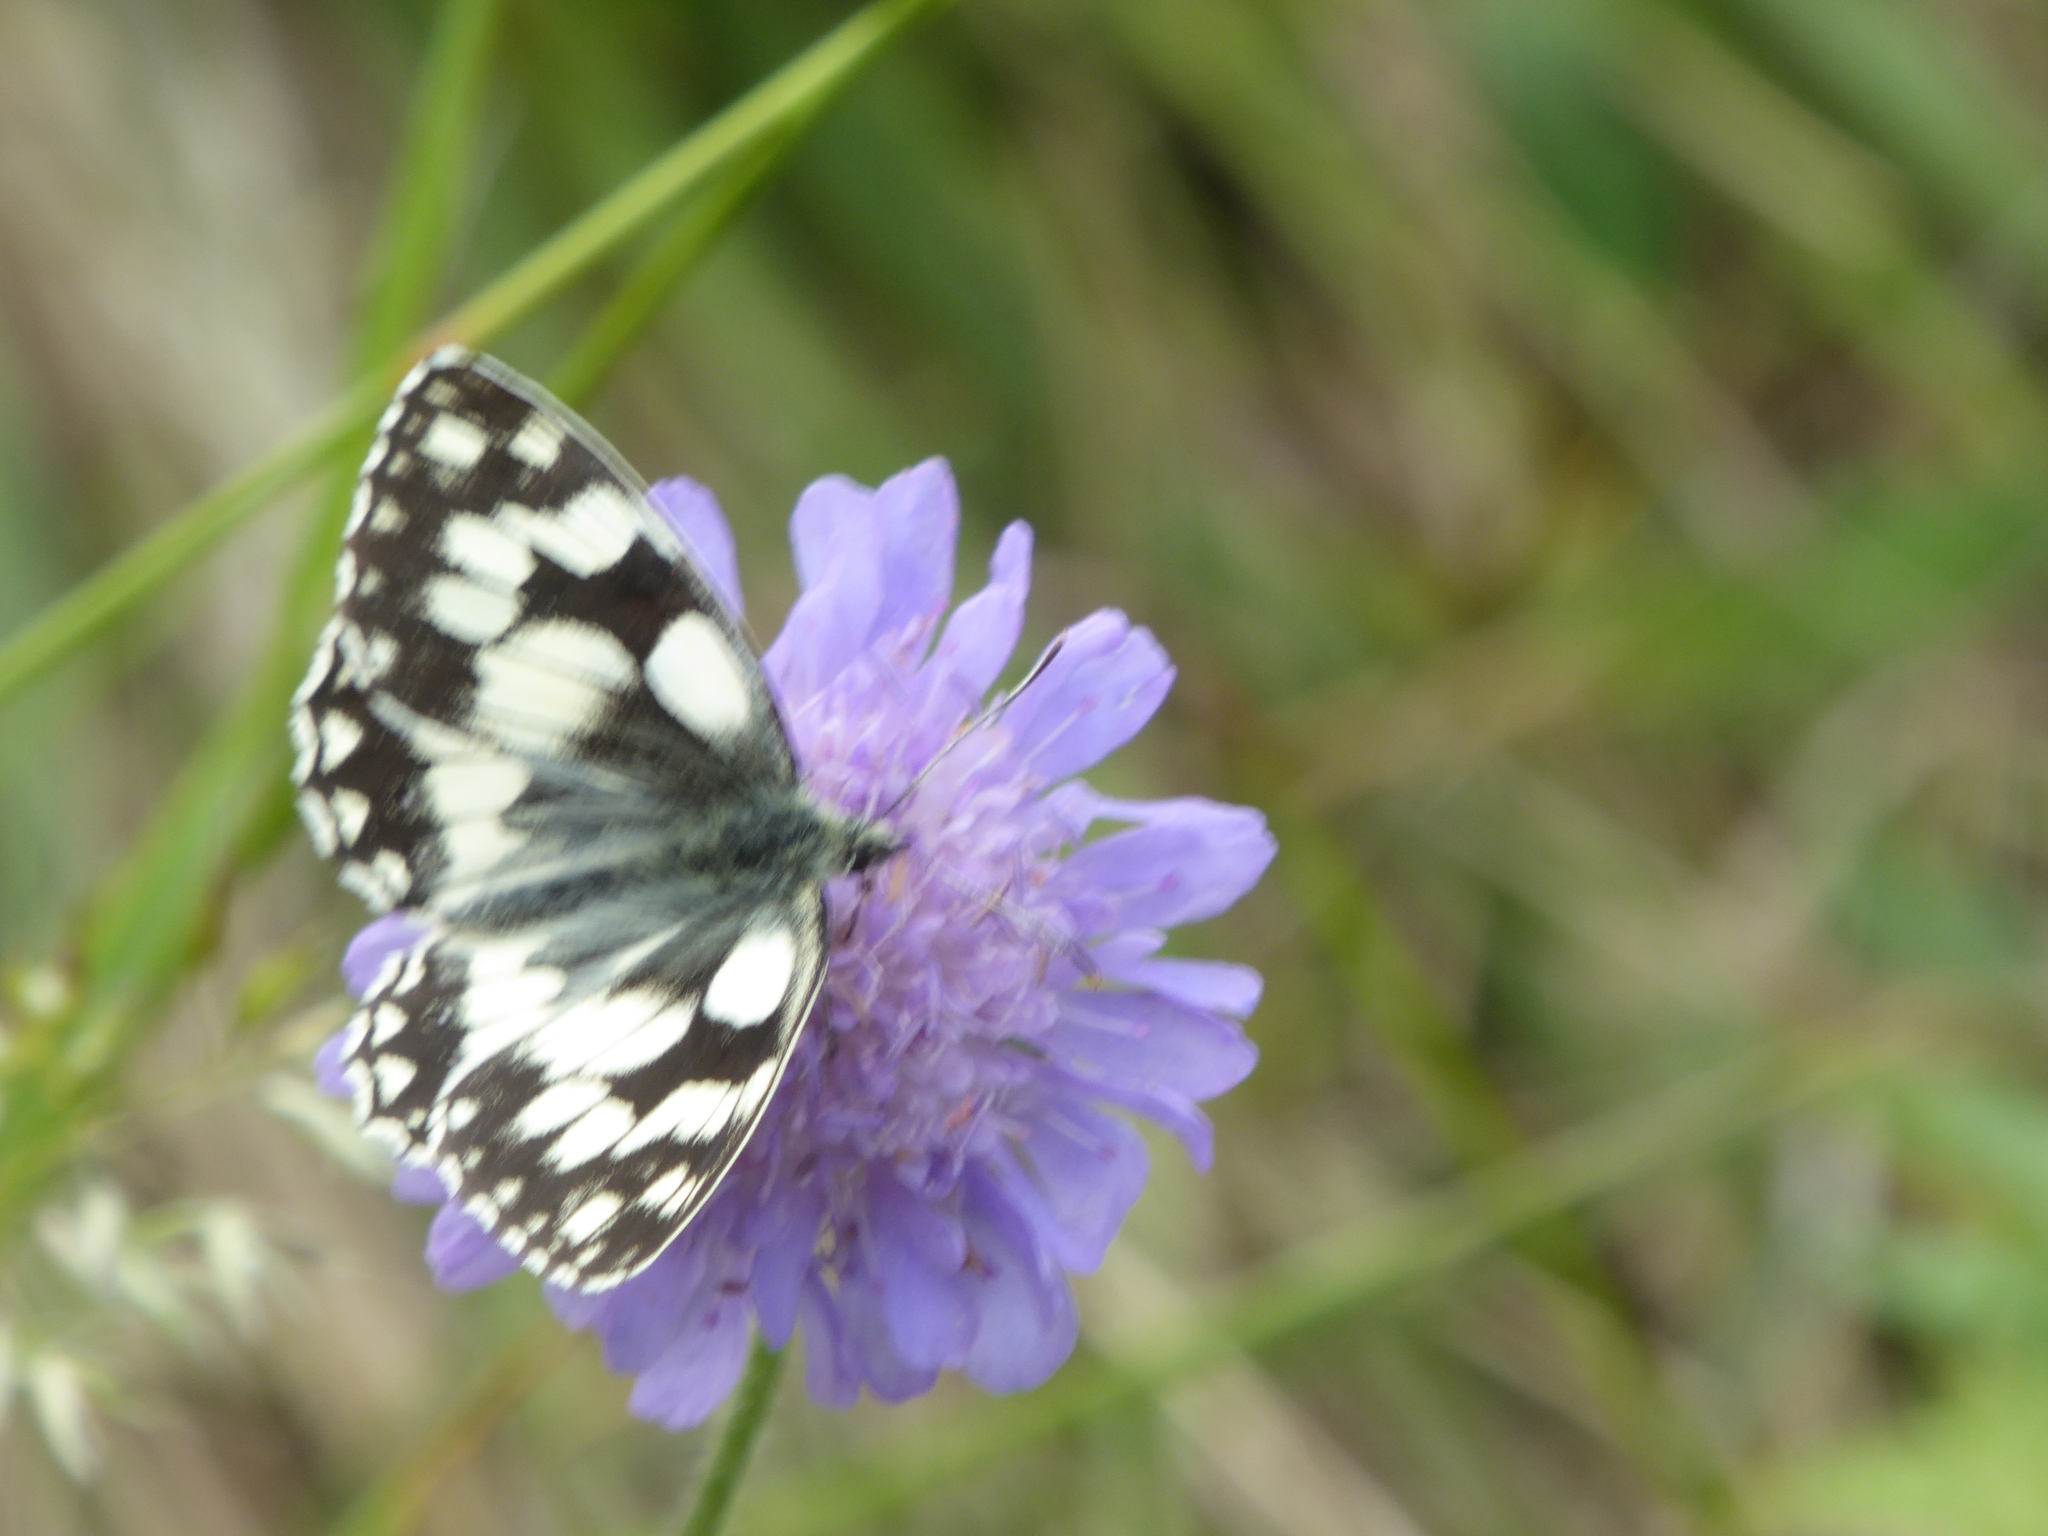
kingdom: Animalia
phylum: Arthropoda
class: Insecta
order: Lepidoptera
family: Nymphalidae
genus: Melanargia
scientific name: Melanargia galathea
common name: Marbled white
